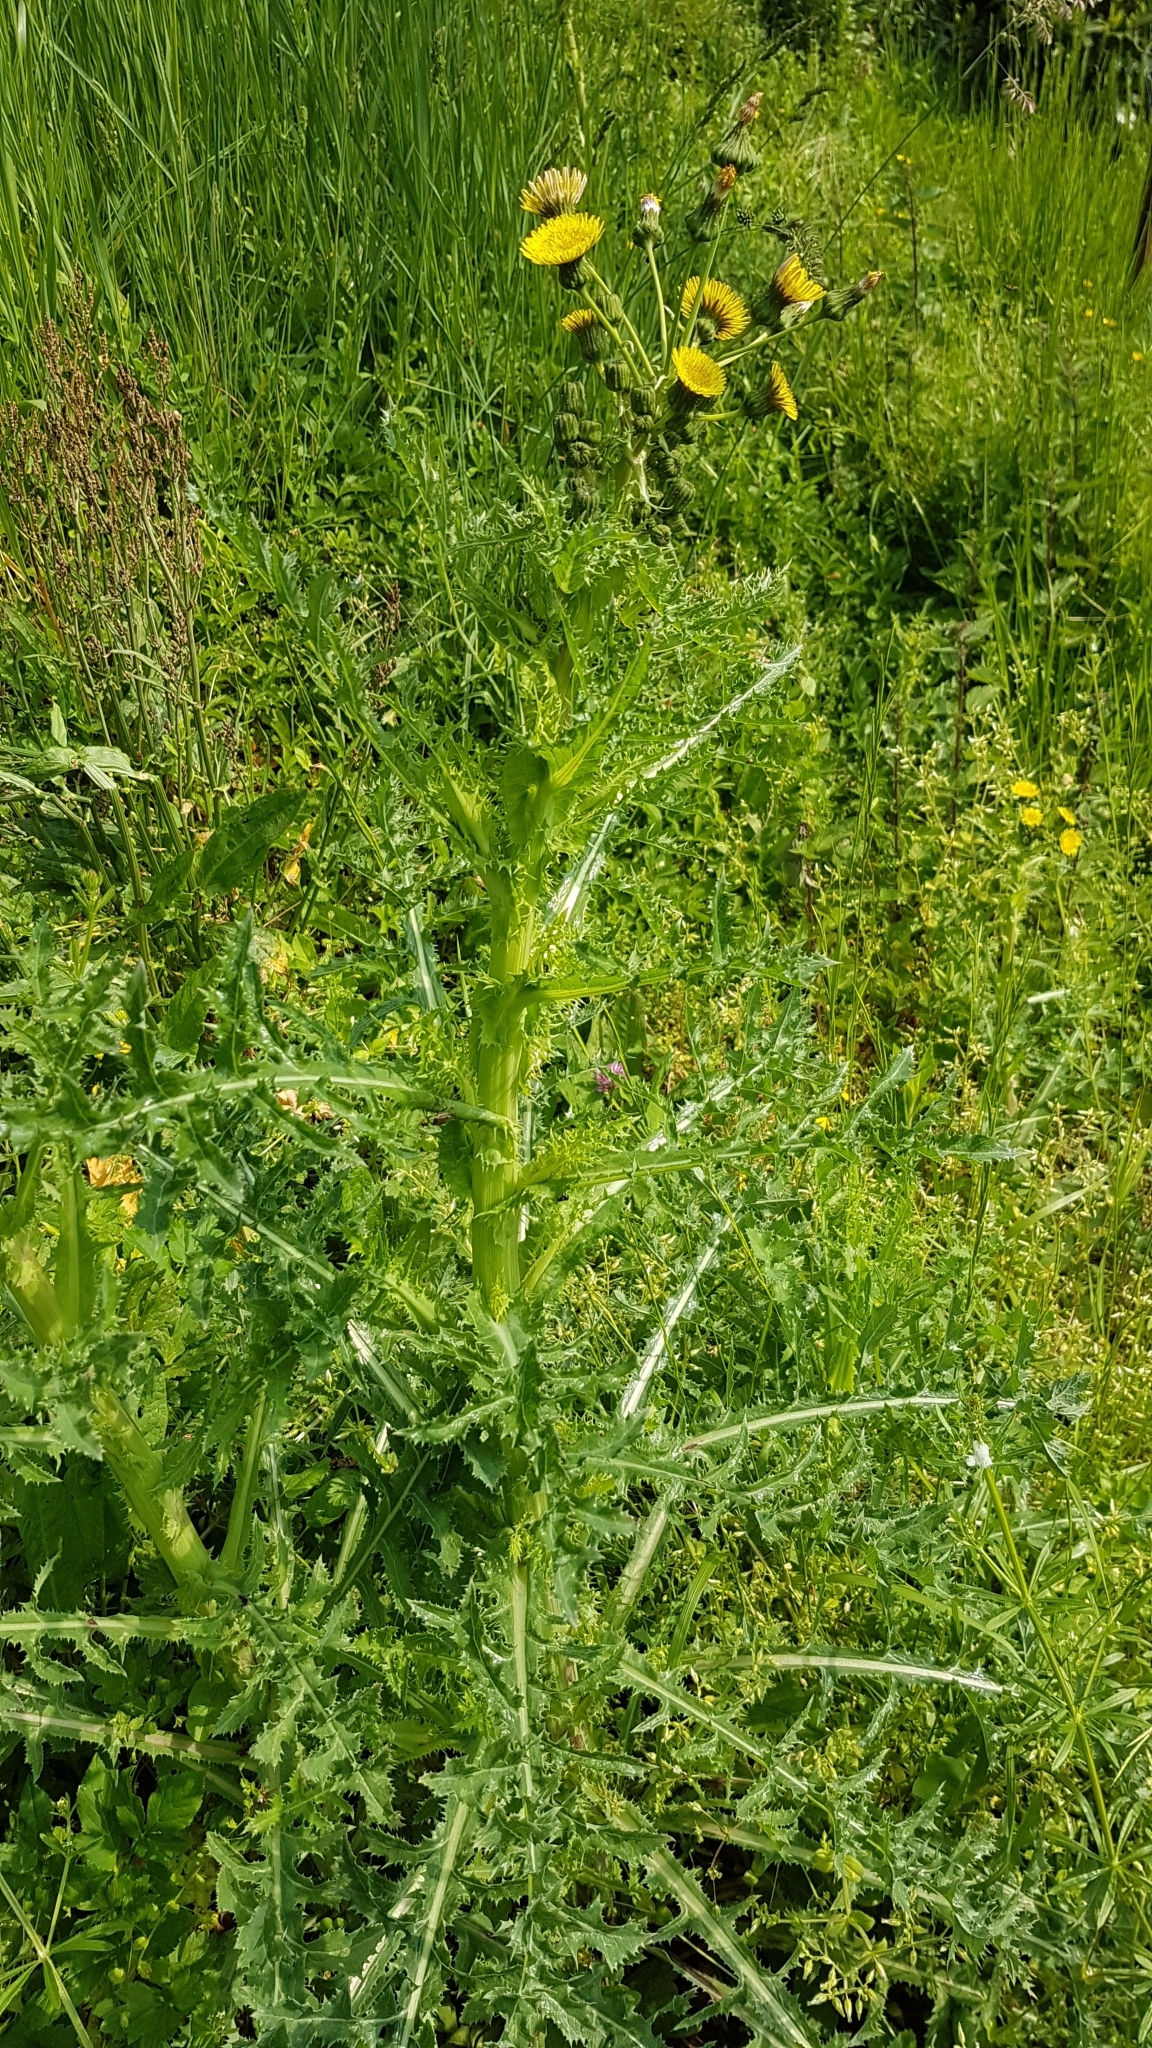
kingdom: Plantae
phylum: Tracheophyta
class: Magnoliopsida
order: Asterales
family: Asteraceae
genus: Sonchus
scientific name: Sonchus asper
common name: Prickly sow-thistle
